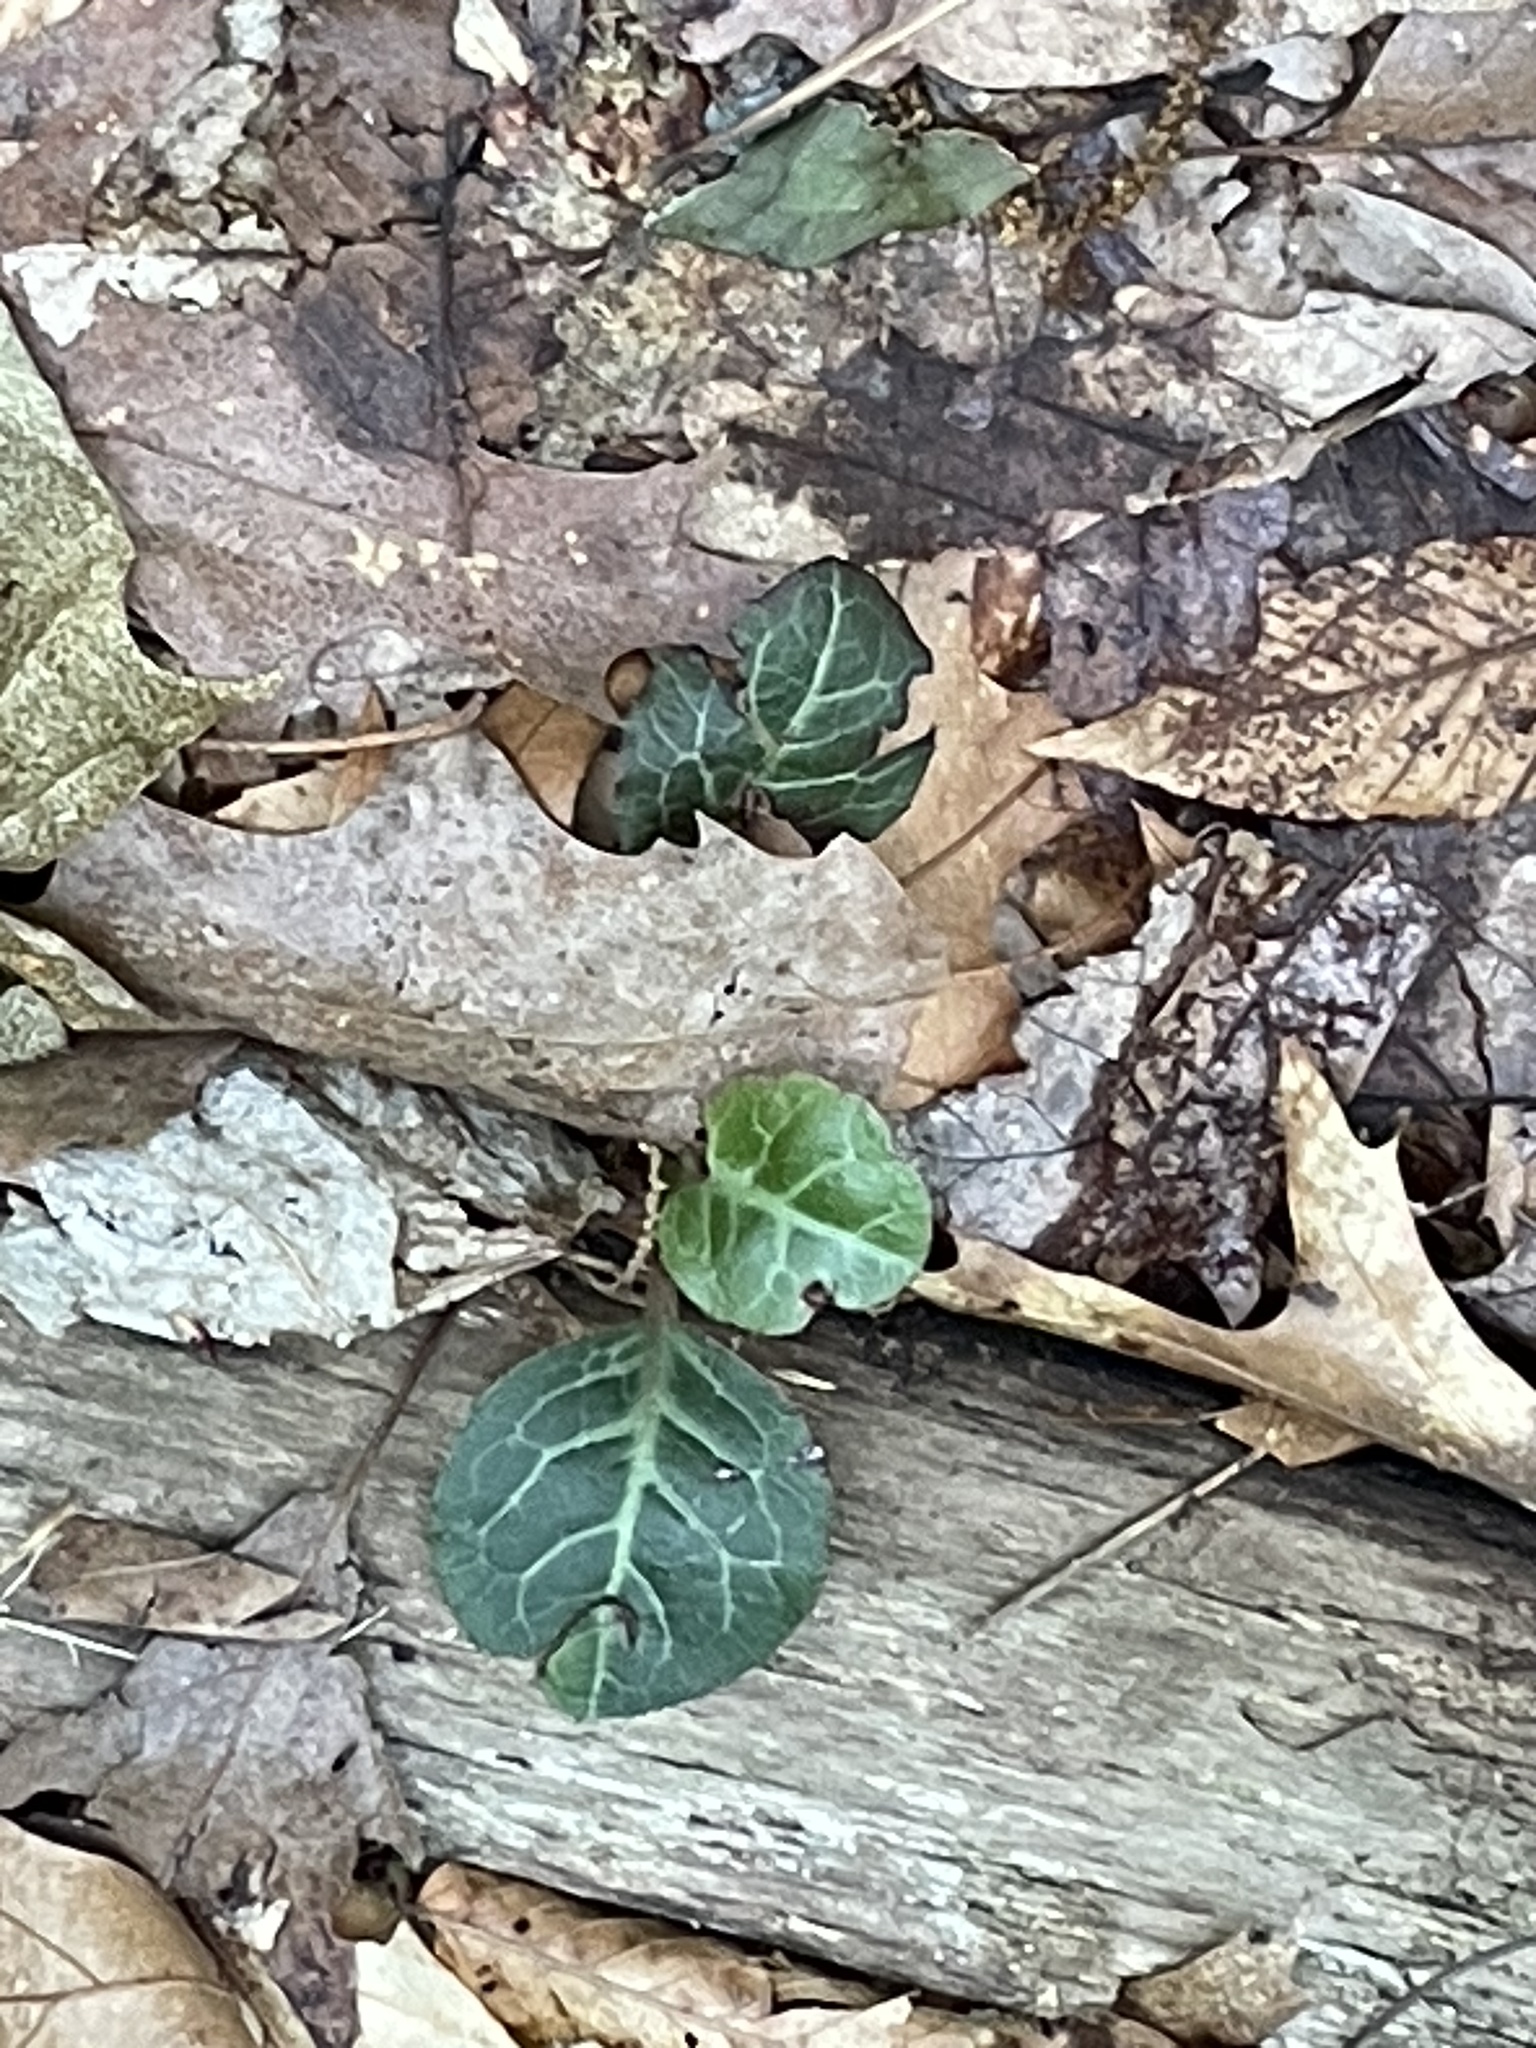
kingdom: Plantae
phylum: Tracheophyta
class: Magnoliopsida
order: Ericales
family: Ericaceae
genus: Pyrola
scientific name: Pyrola americana
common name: American wintergreen
